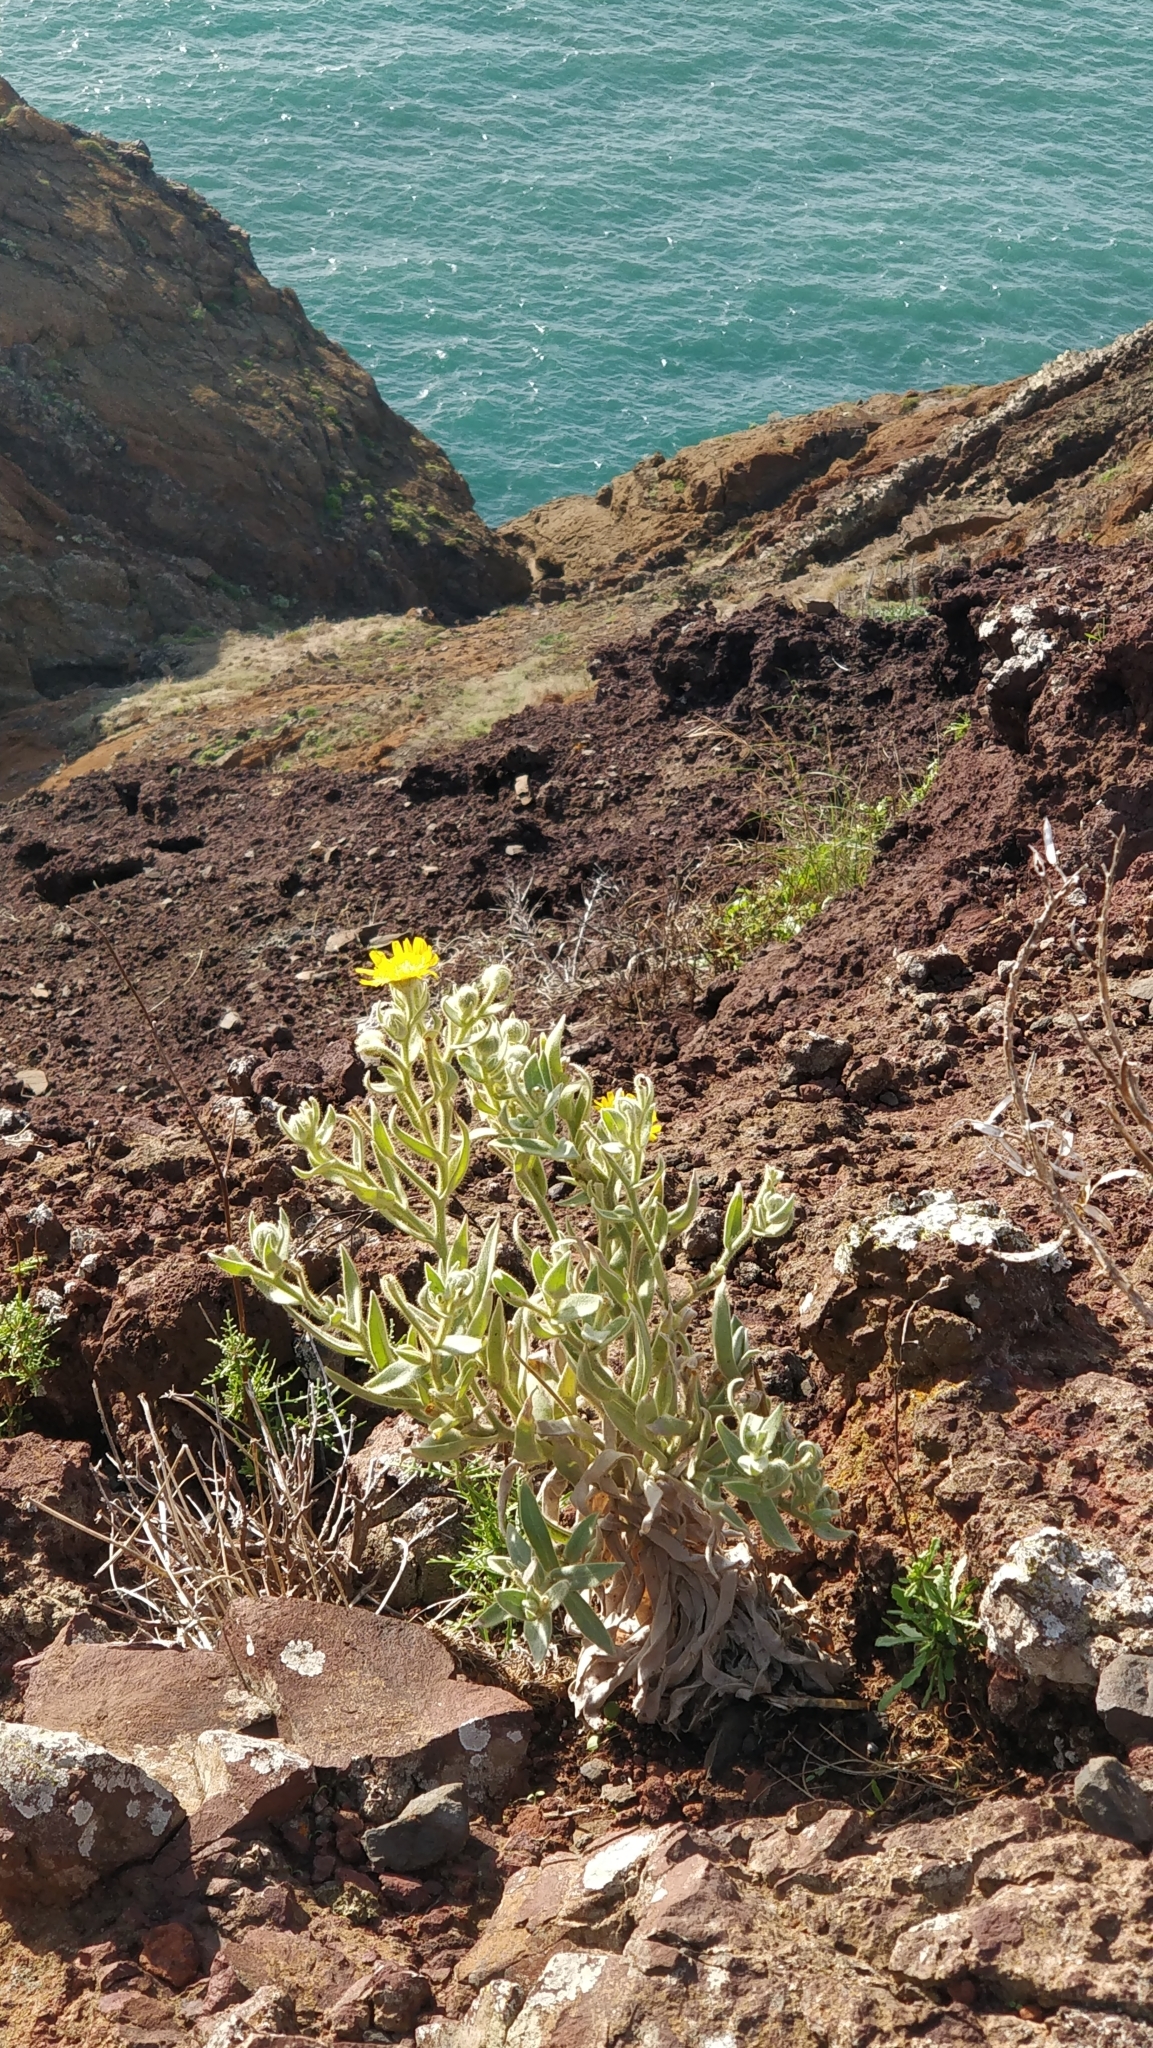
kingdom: Plantae
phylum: Tracheophyta
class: Magnoliopsida
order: Asterales
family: Asteraceae
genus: Andryala
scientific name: Andryala glandulosa
